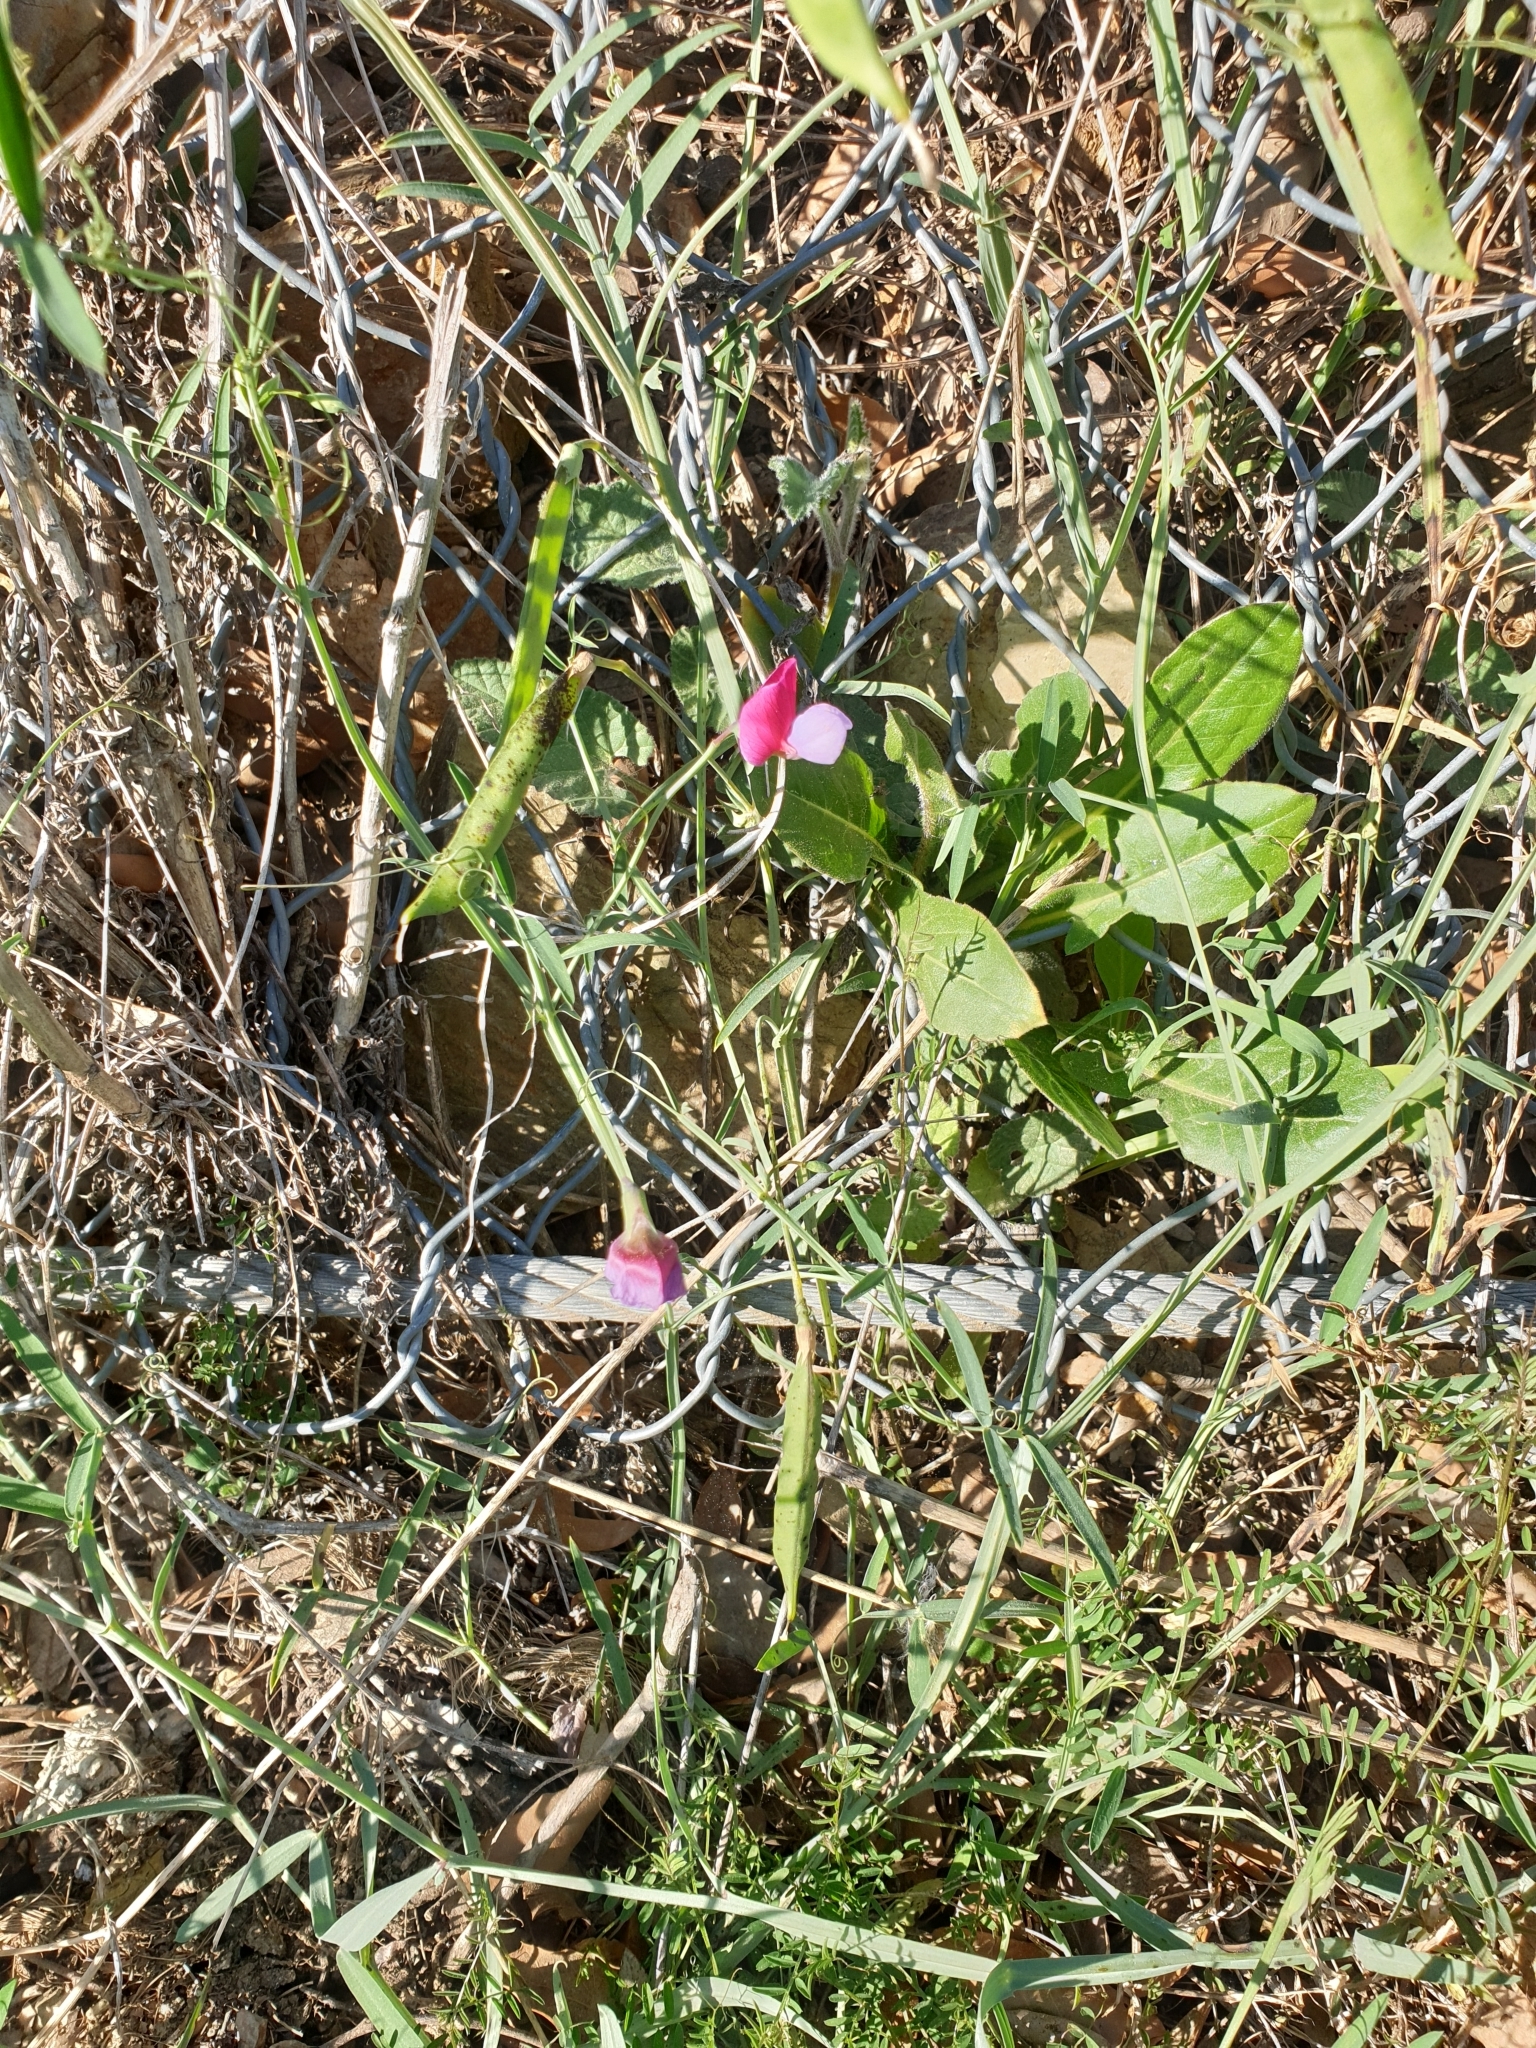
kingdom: Plantae
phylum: Tracheophyta
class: Magnoliopsida
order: Fabales
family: Fabaceae
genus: Lathyrus
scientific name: Lathyrus clymenum
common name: Spanish vetchling
